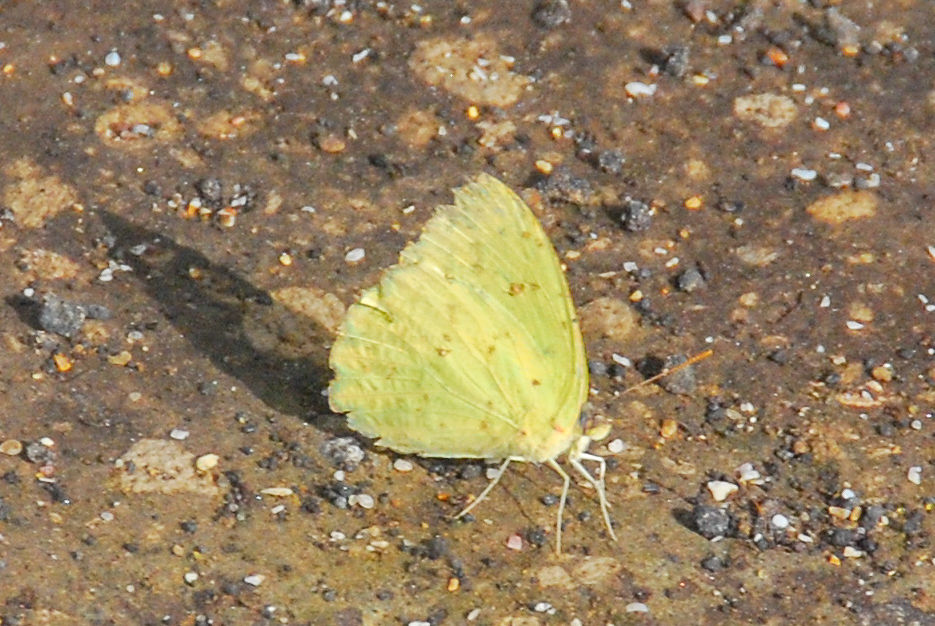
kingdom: Animalia
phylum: Arthropoda
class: Insecta
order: Lepidoptera
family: Pieridae
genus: Phoebis
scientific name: Phoebis sennae
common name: Cloudless sulphur
